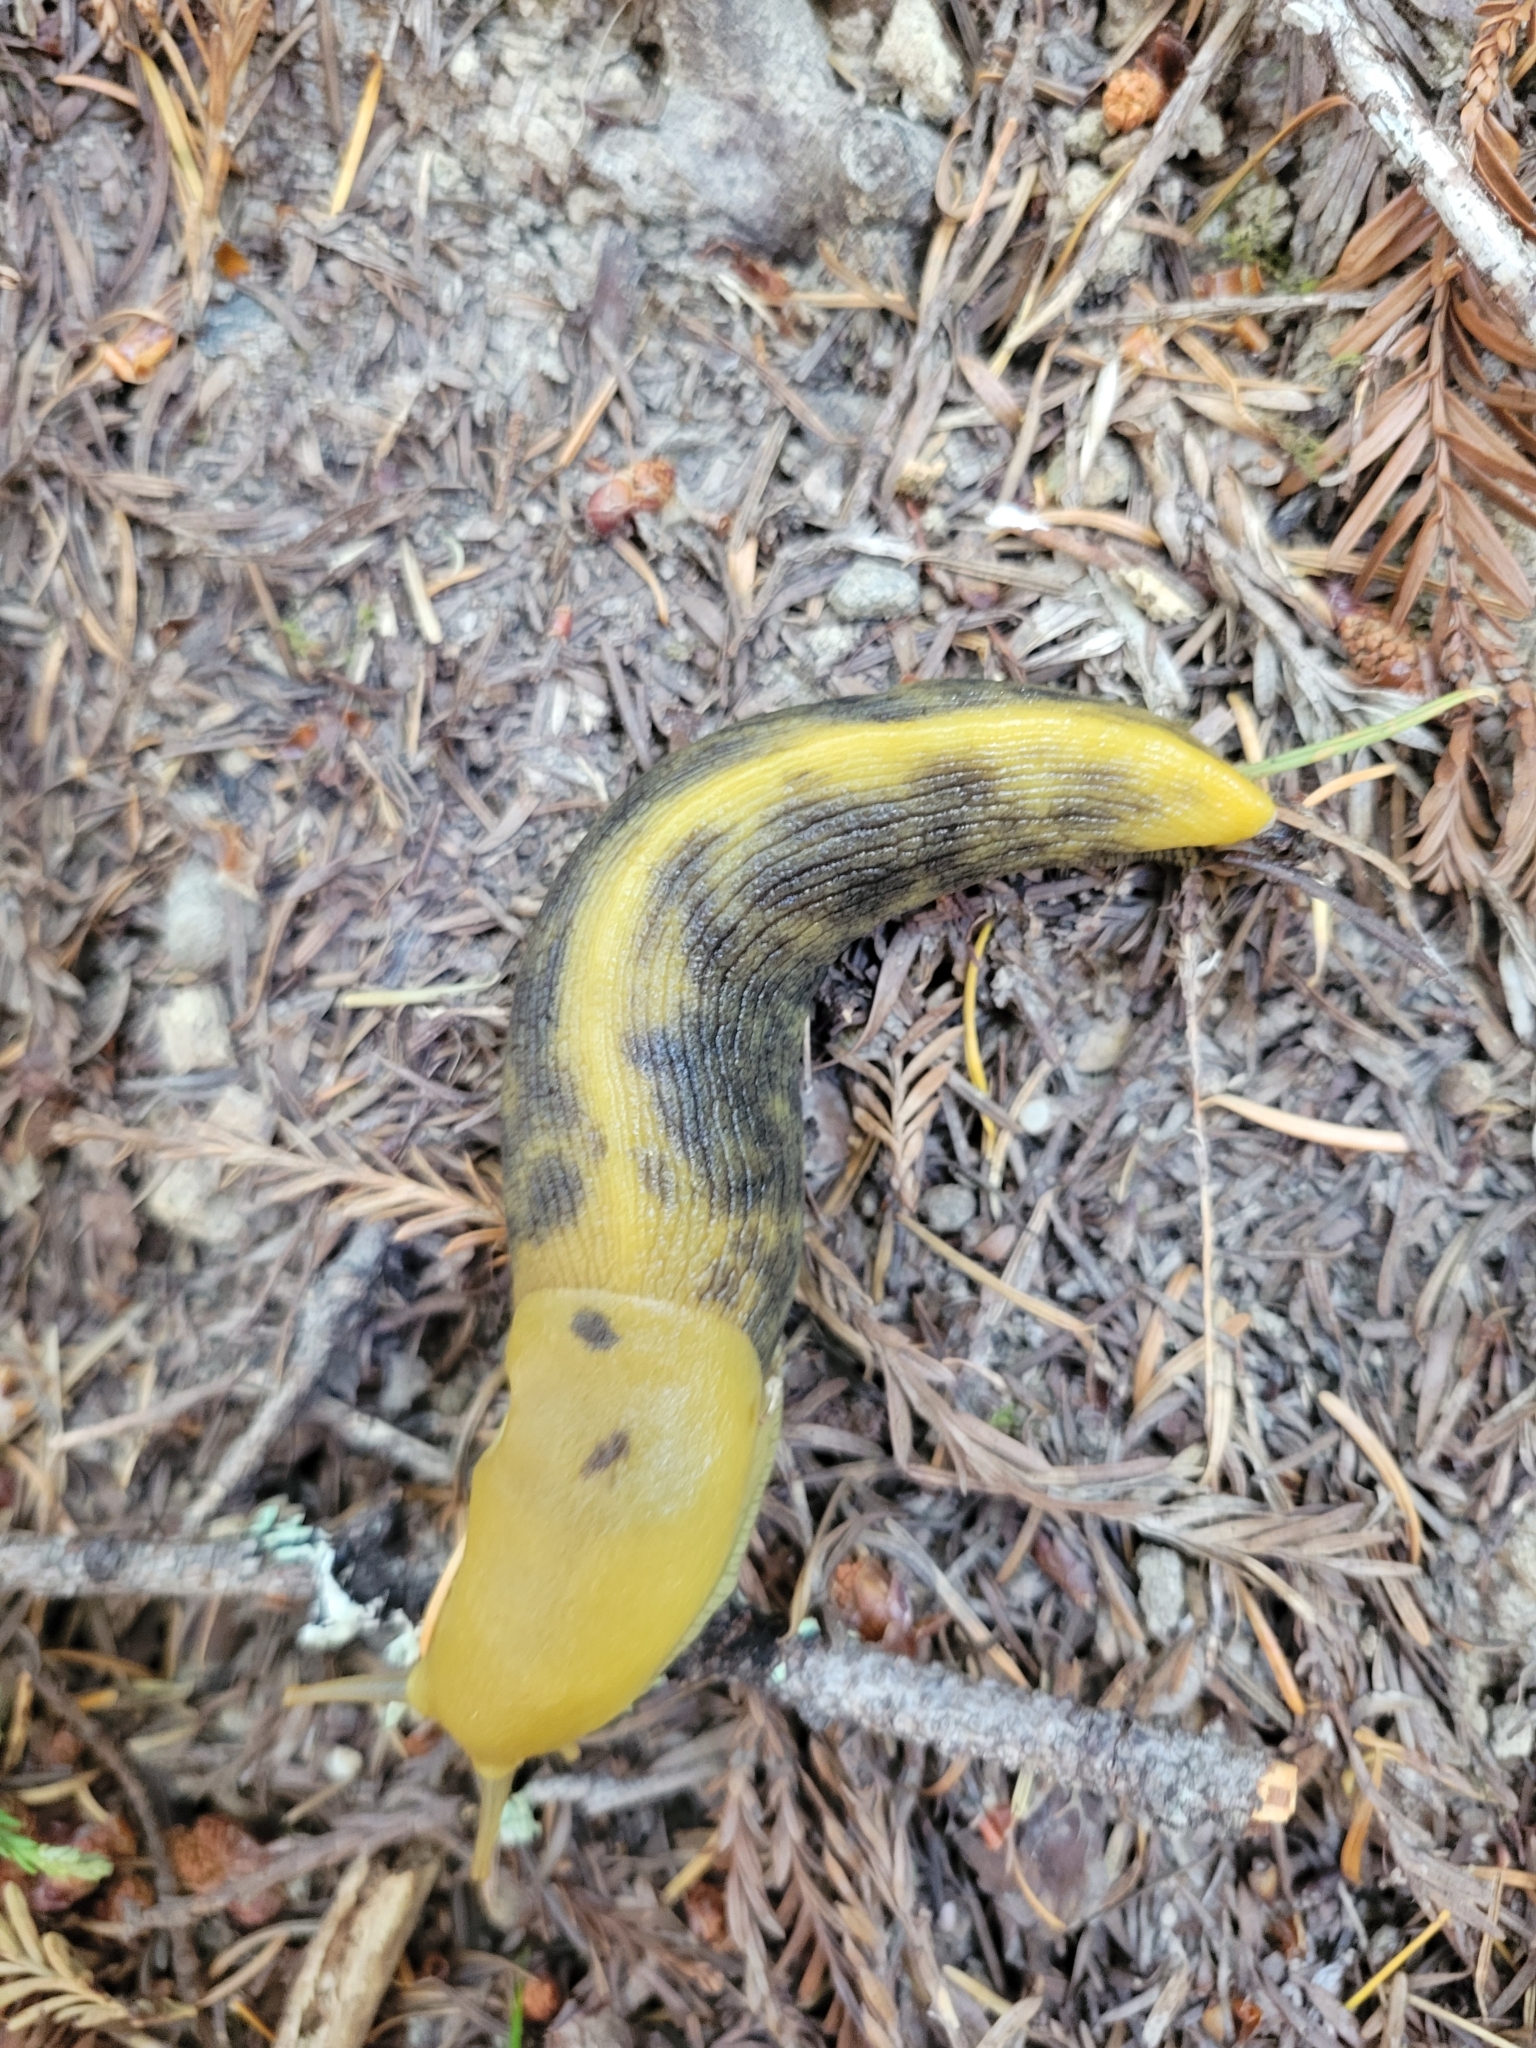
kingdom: Animalia
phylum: Mollusca
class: Gastropoda
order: Stylommatophora
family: Ariolimacidae
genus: Ariolimax
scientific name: Ariolimax buttoni
